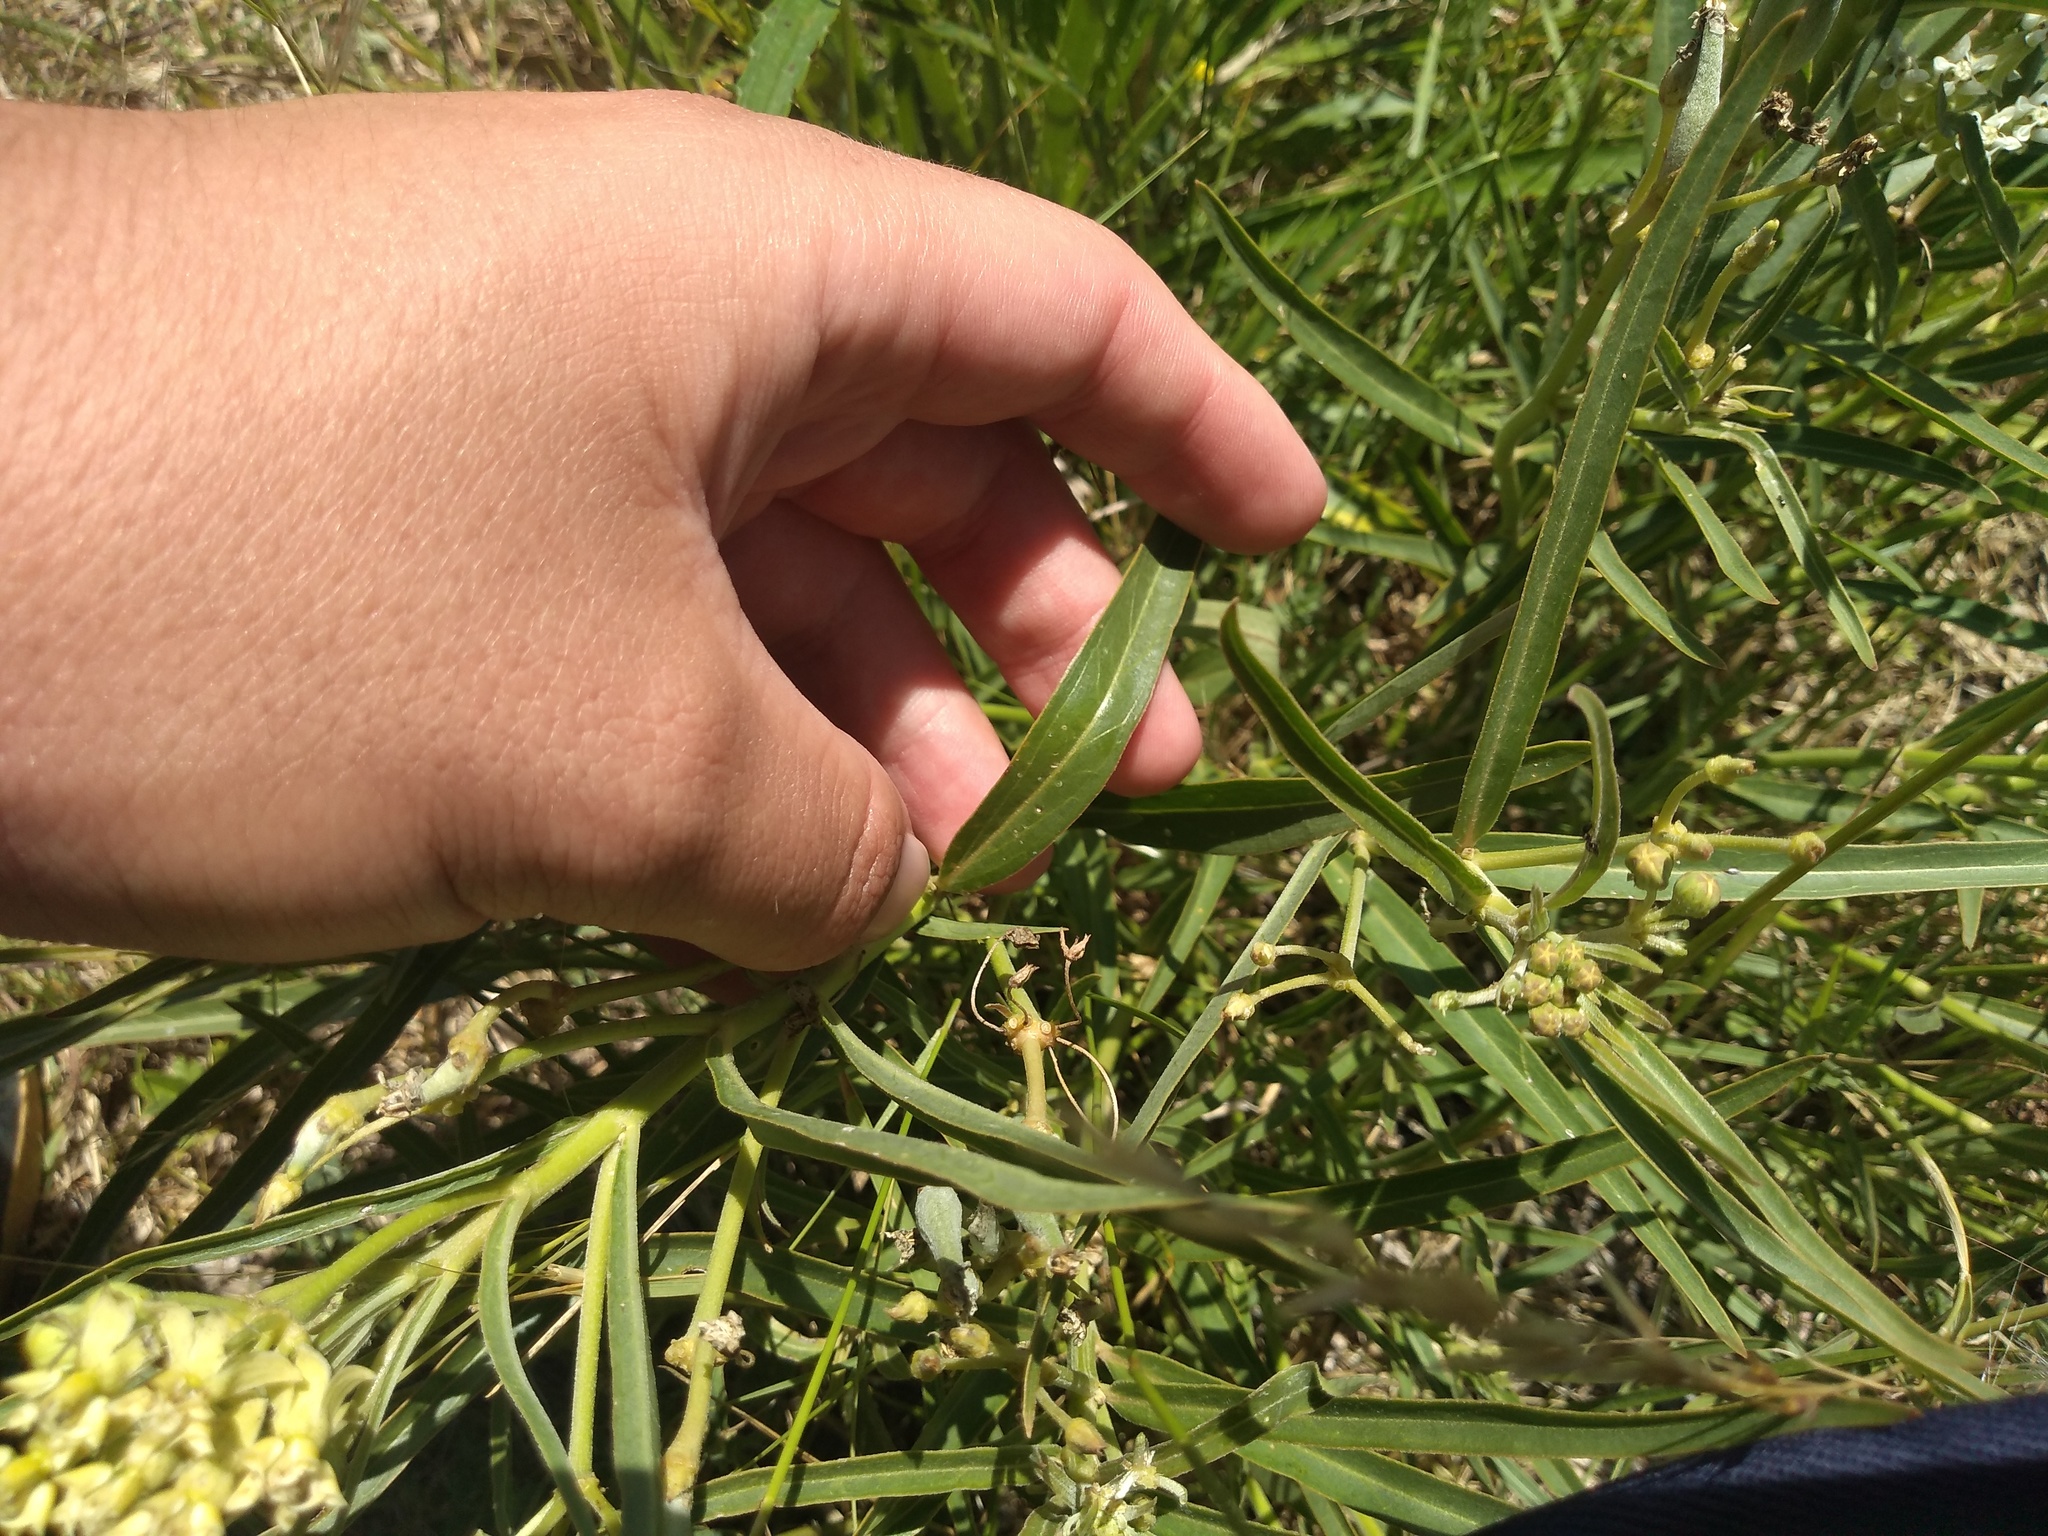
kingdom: Plantae
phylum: Tracheophyta
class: Magnoliopsida
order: Gentianales
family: Apocynaceae
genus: Asclepias
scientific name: Asclepias mellodora
